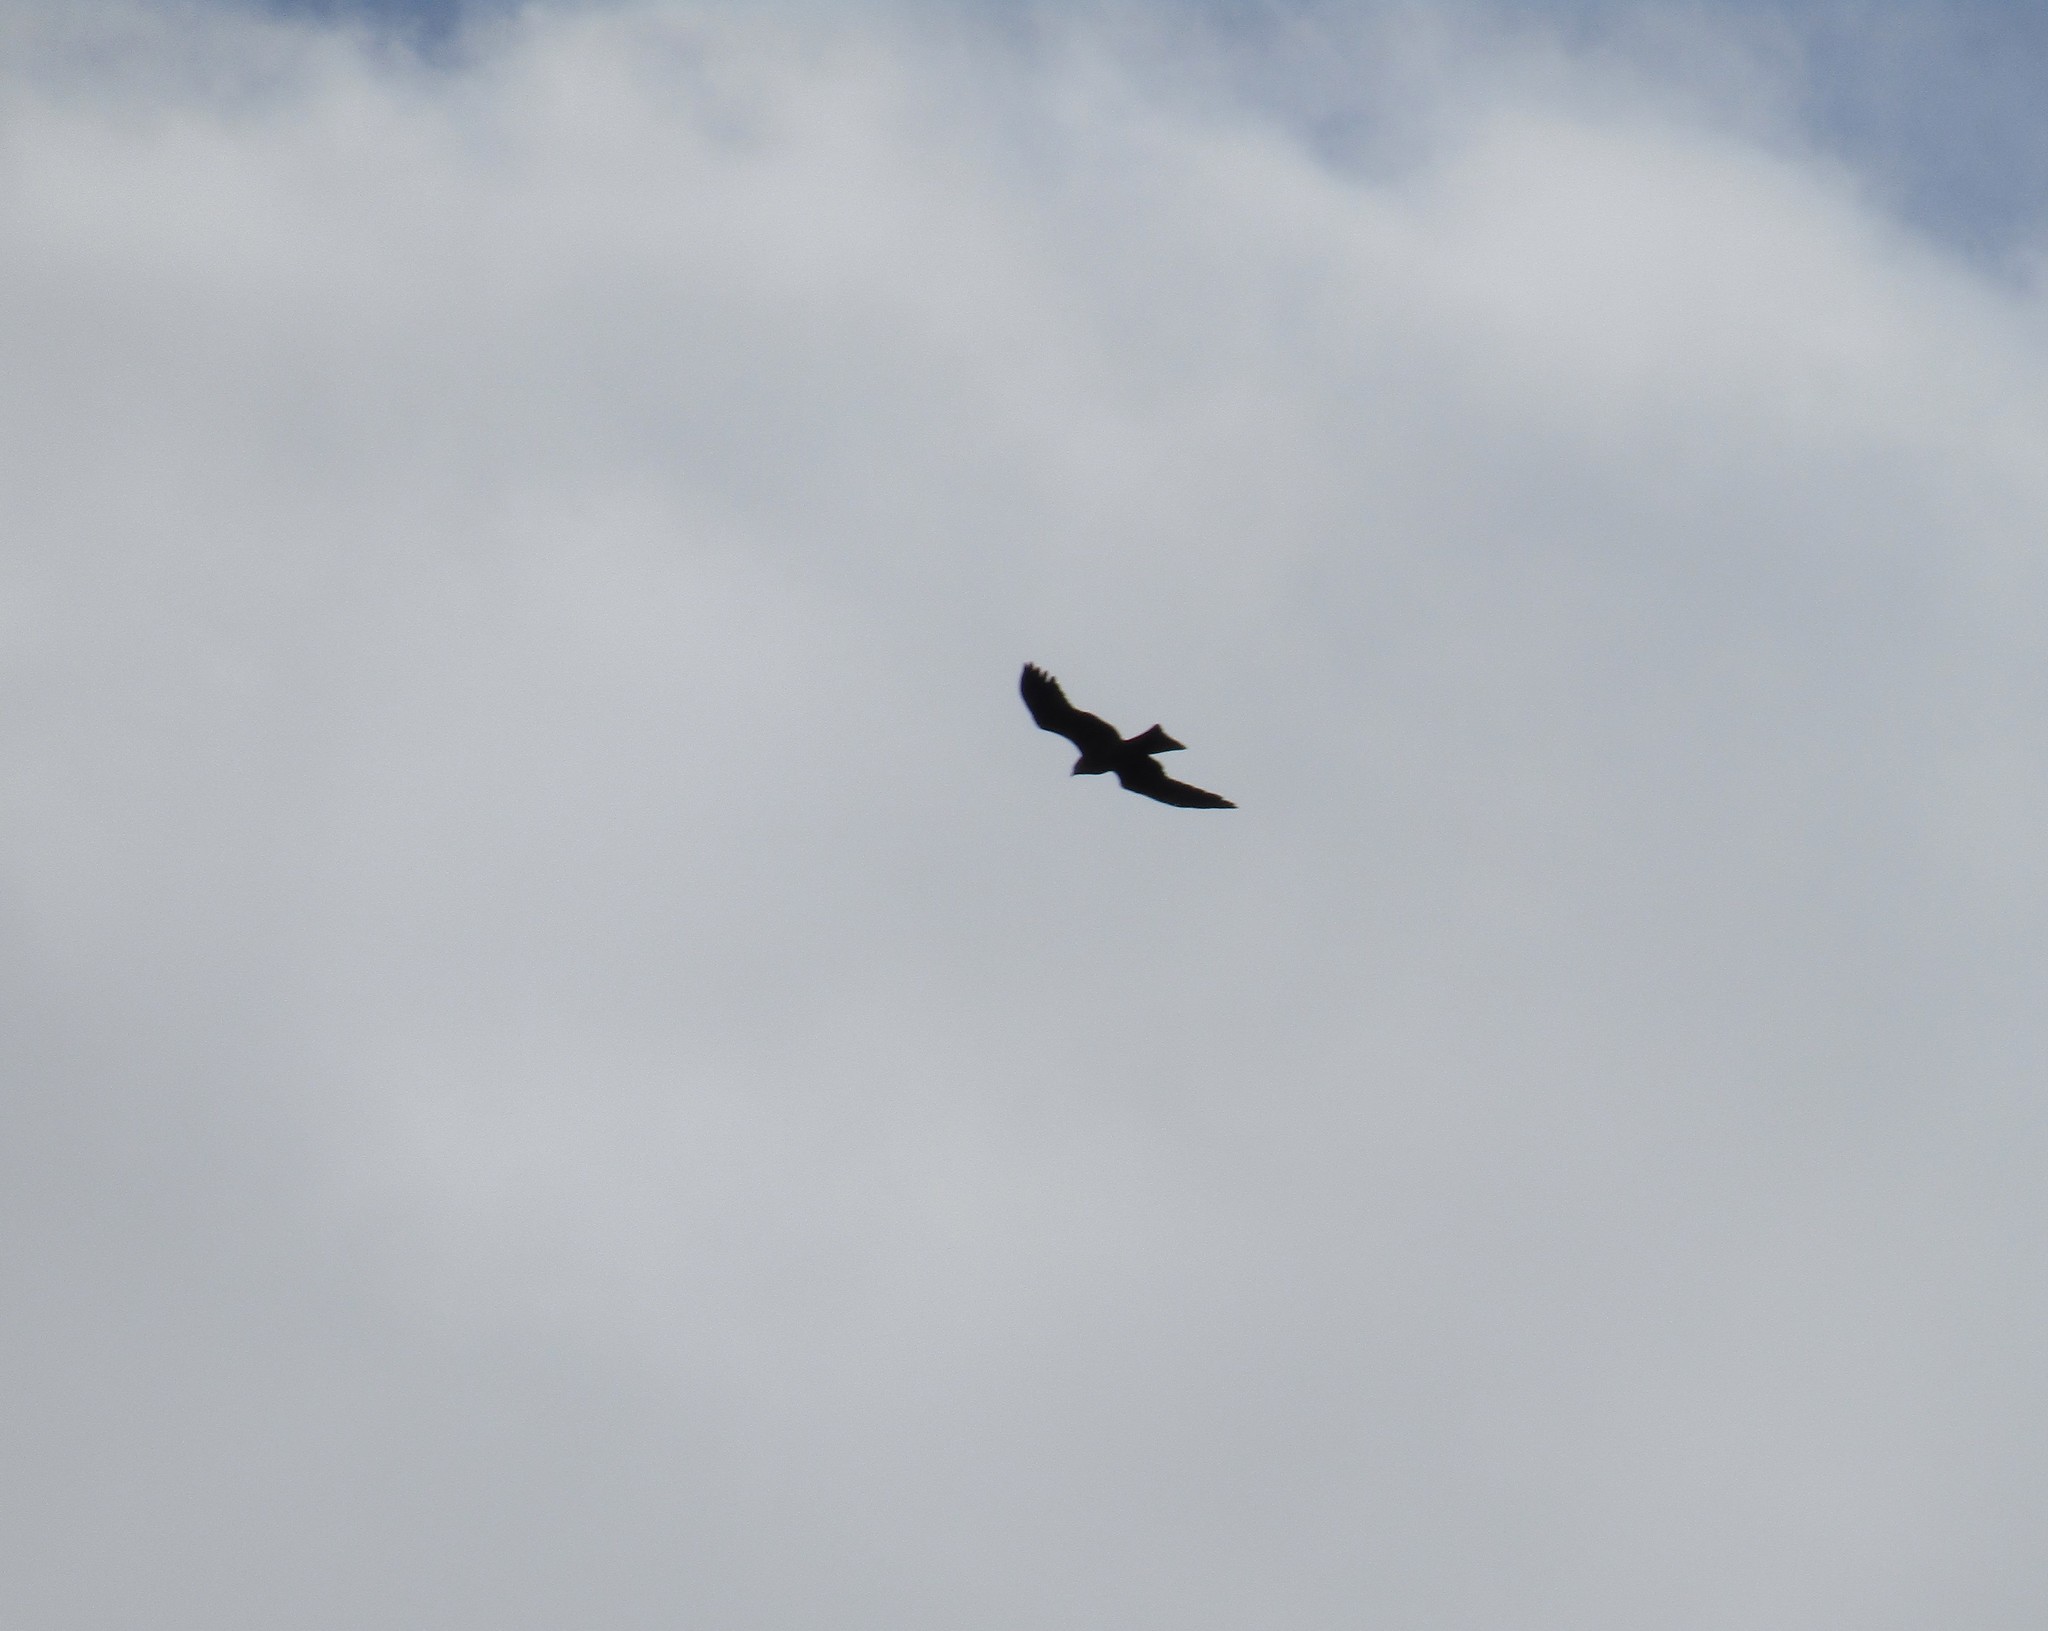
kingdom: Animalia
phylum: Chordata
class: Aves
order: Accipitriformes
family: Accipitridae
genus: Milvus
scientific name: Milvus migrans
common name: Black kite
